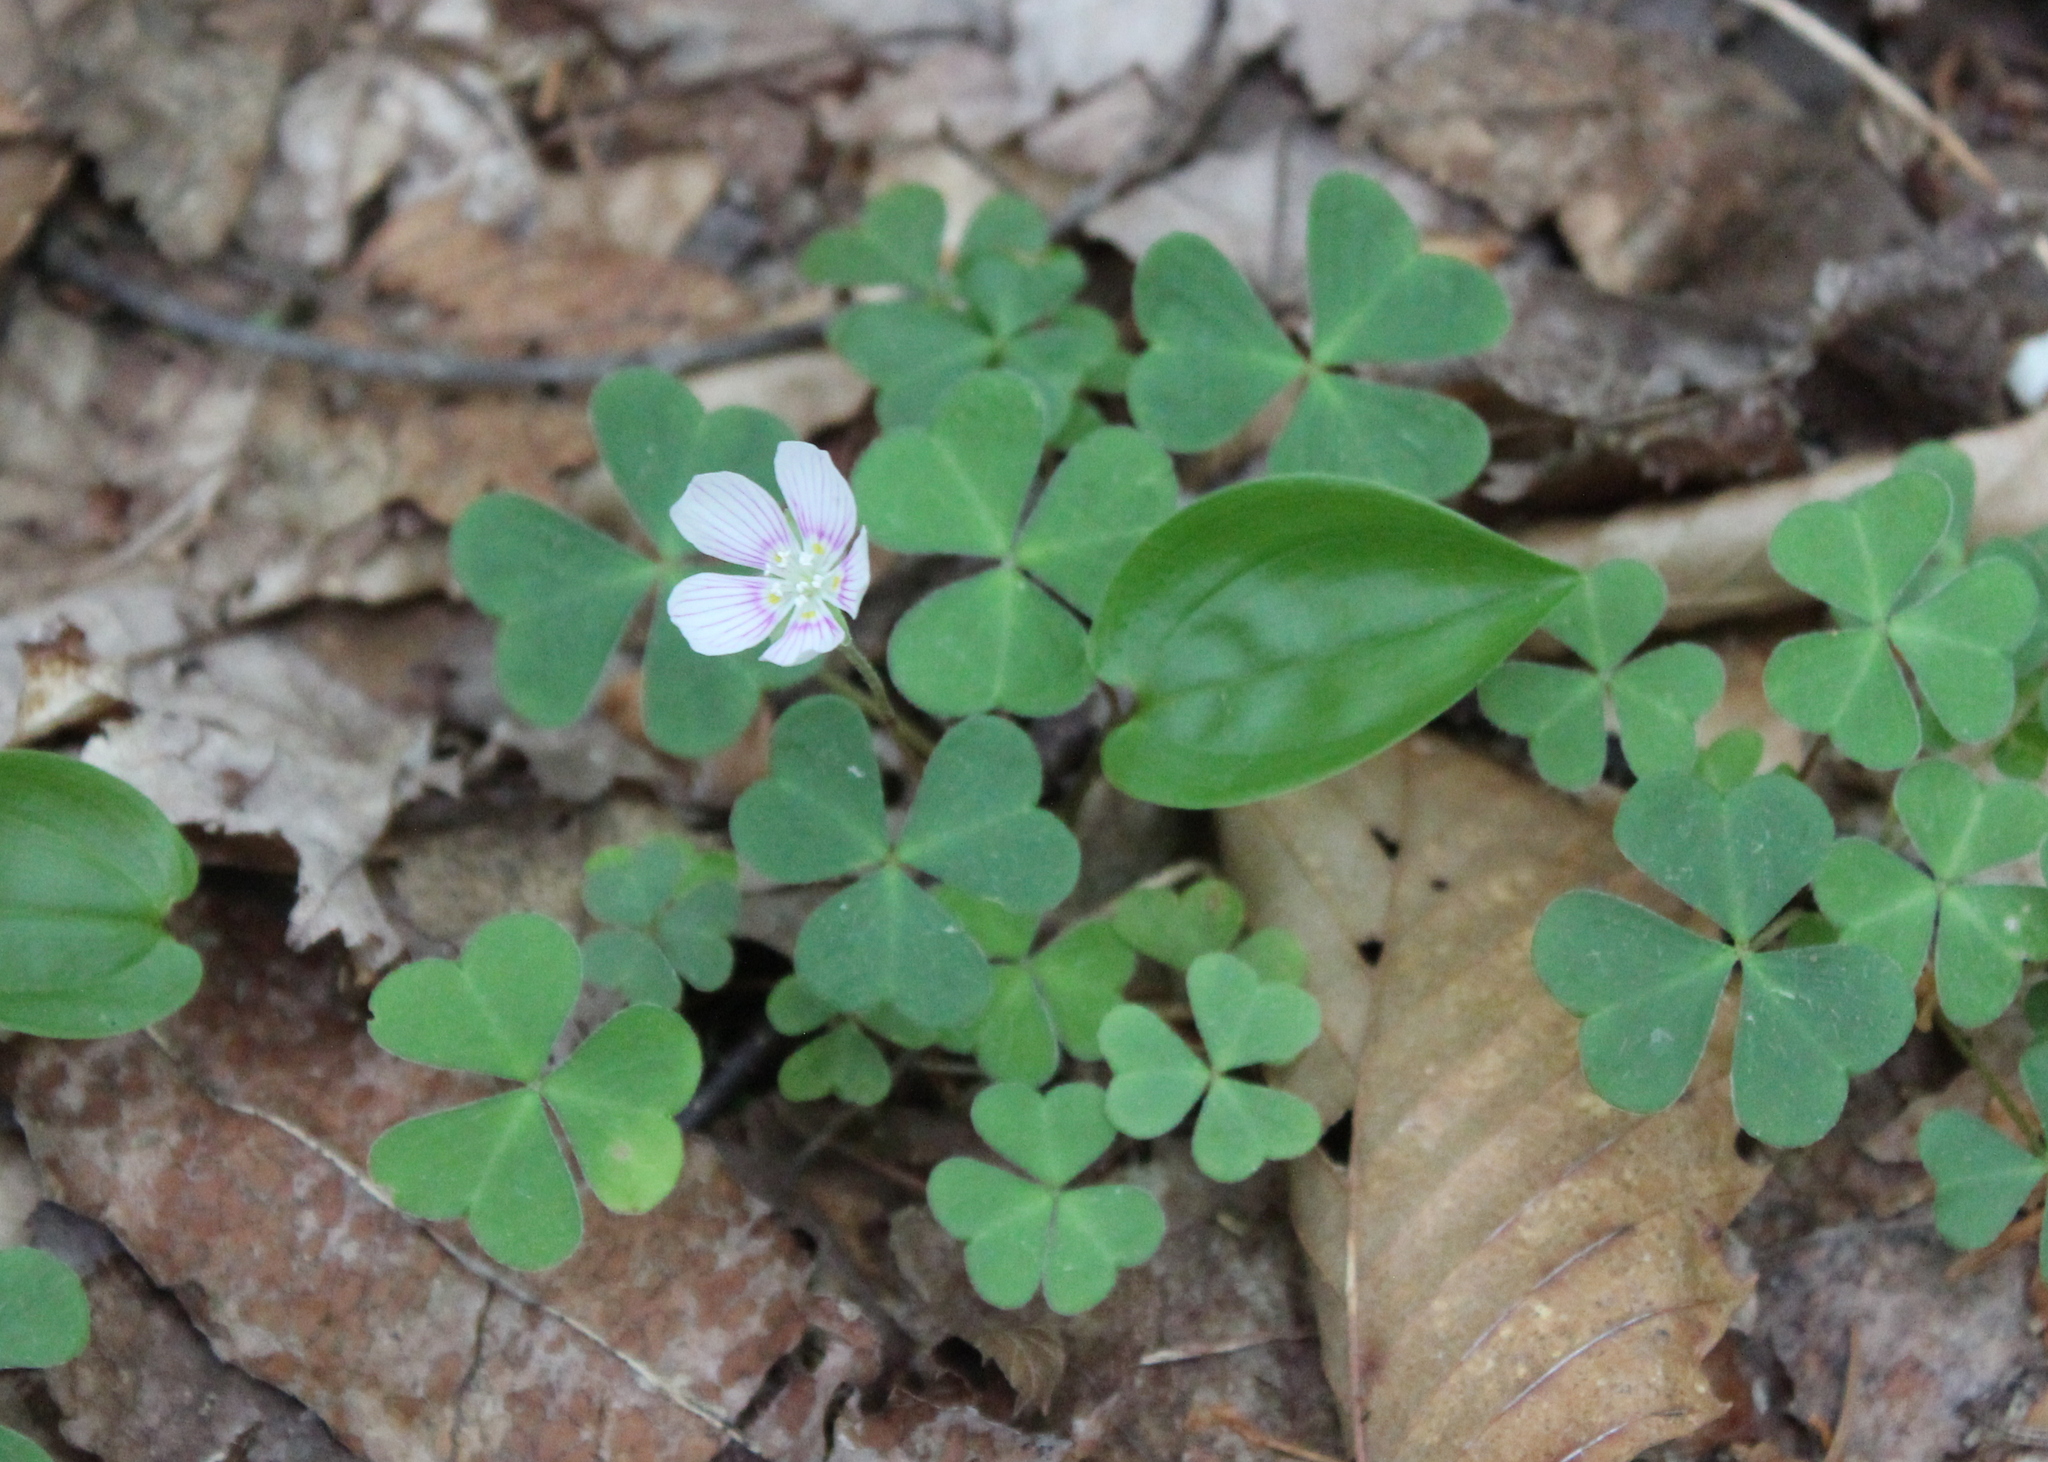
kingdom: Plantae
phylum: Tracheophyta
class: Magnoliopsida
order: Oxalidales
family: Oxalidaceae
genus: Oxalis
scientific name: Oxalis montana
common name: American wood-sorrel
